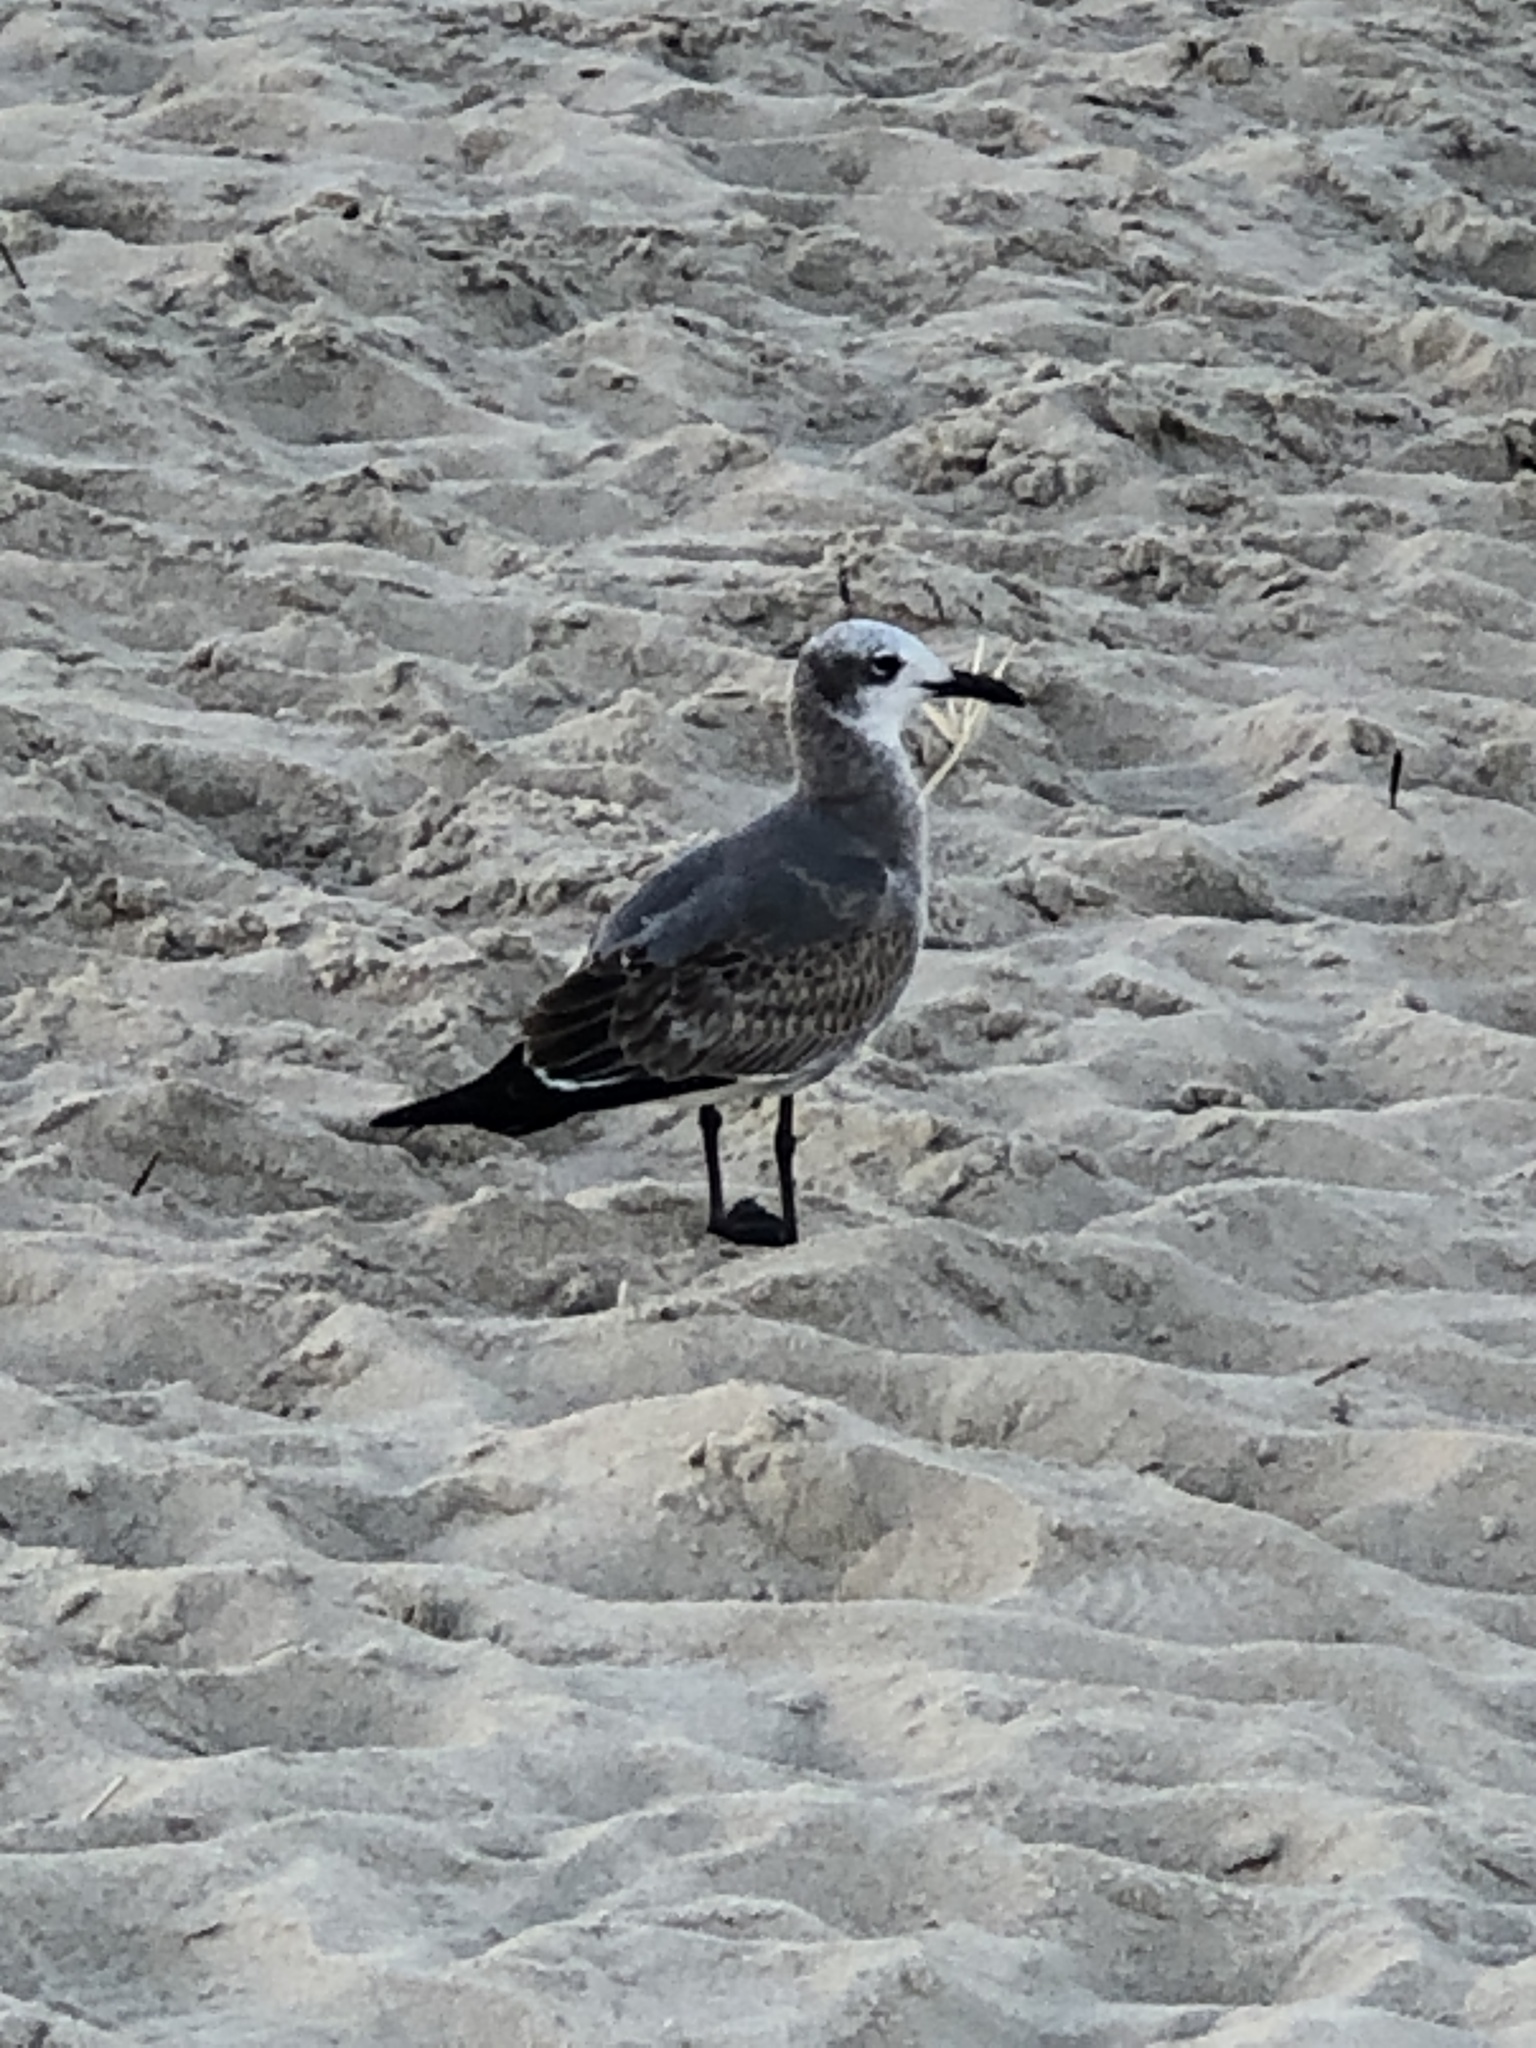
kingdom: Animalia
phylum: Chordata
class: Aves
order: Charadriiformes
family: Laridae
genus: Leucophaeus
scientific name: Leucophaeus atricilla
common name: Laughing gull
